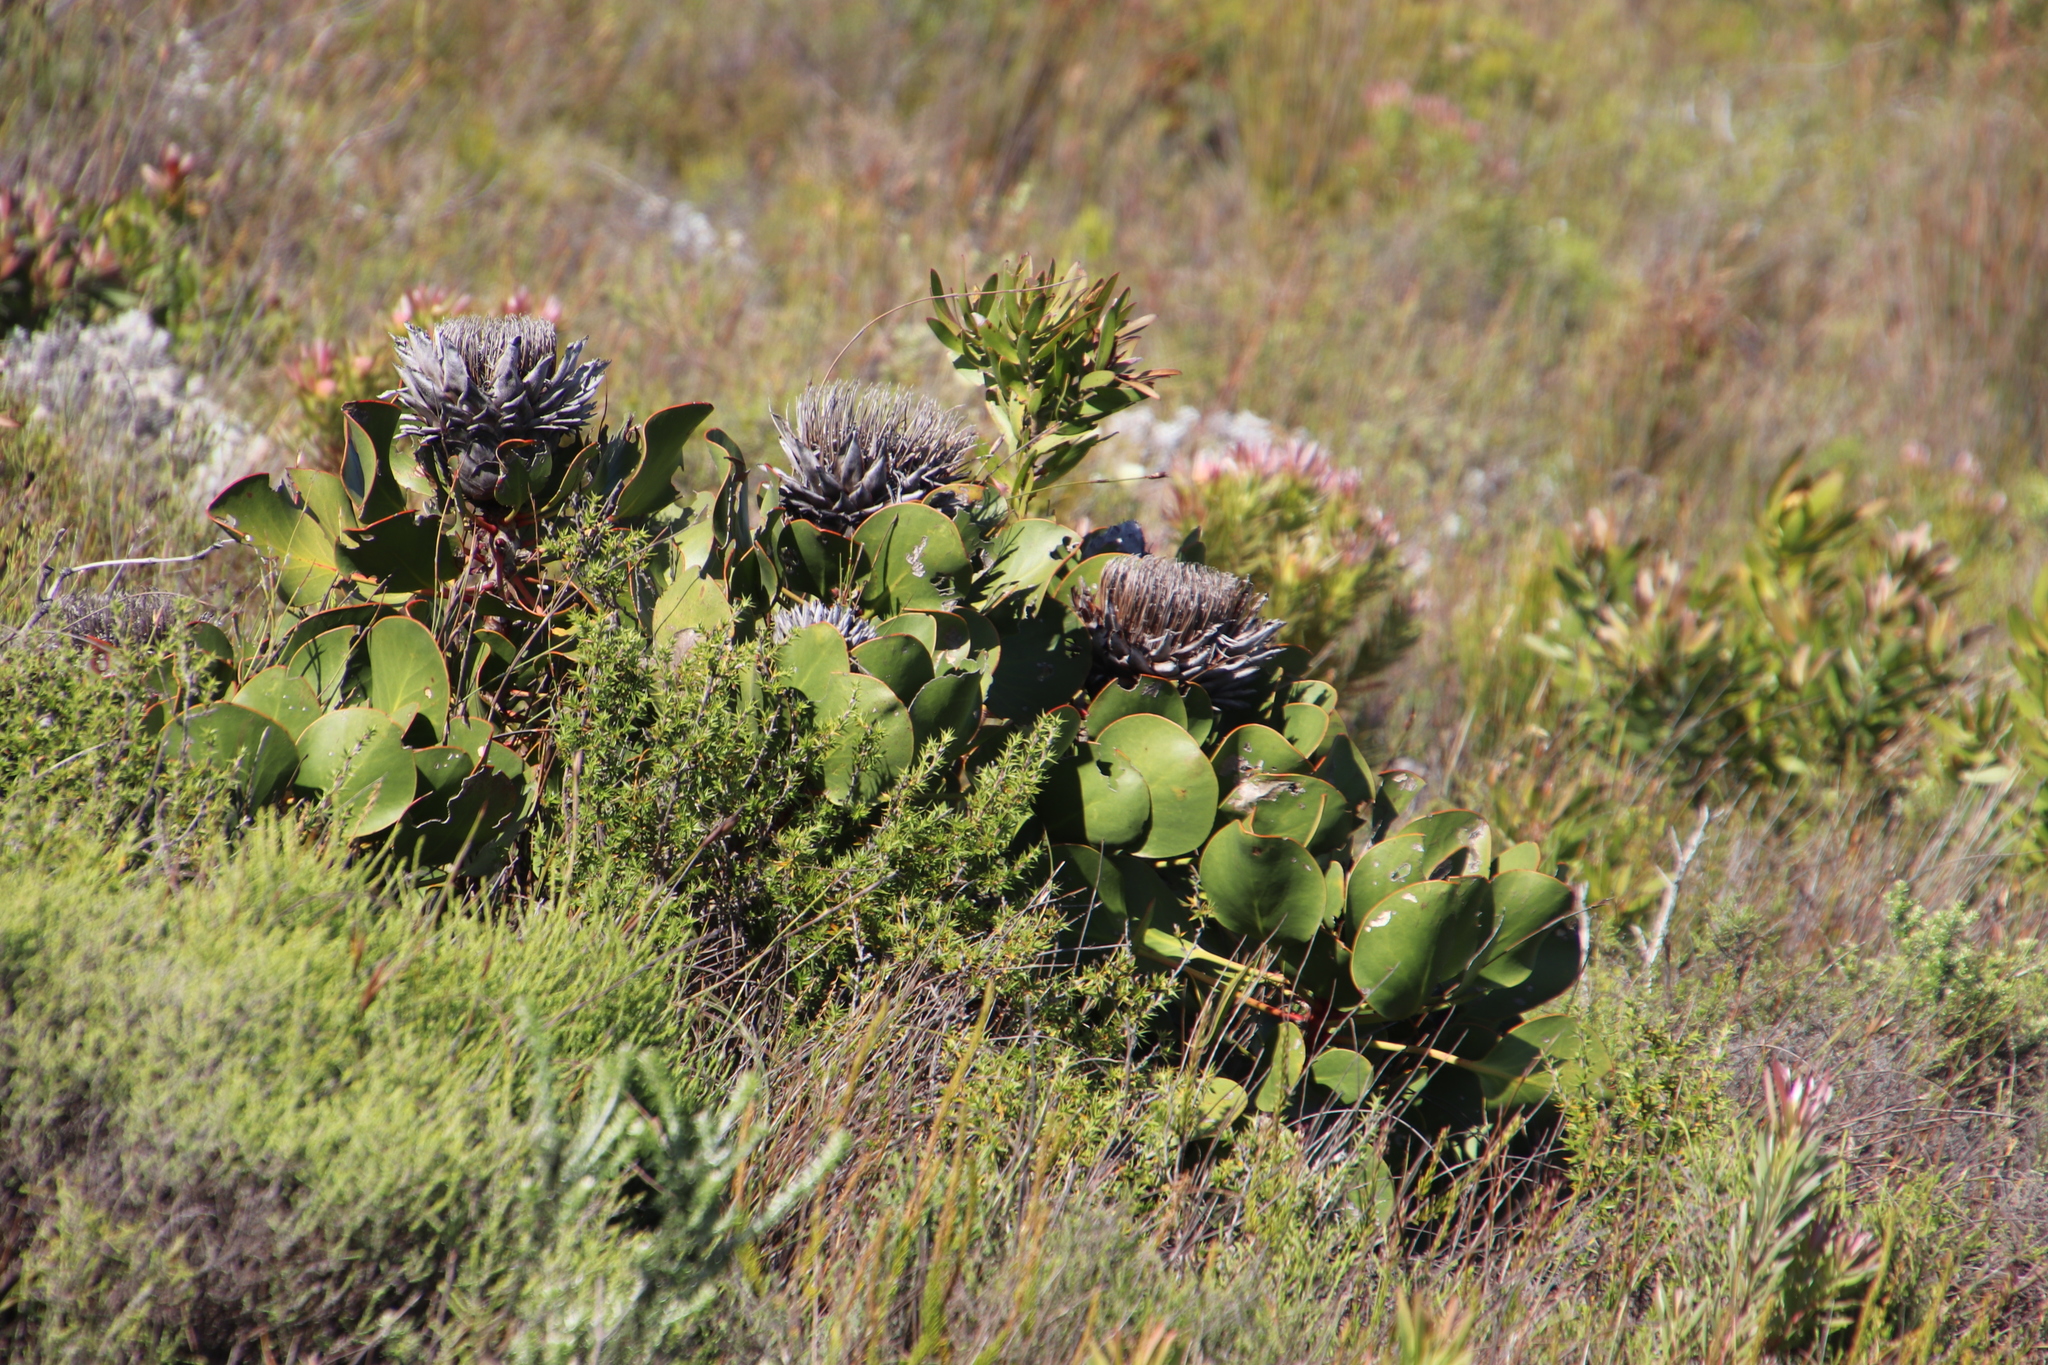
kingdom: Plantae
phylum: Tracheophyta
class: Magnoliopsida
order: Proteales
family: Proteaceae
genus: Protea
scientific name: Protea cynaroides
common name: King protea
